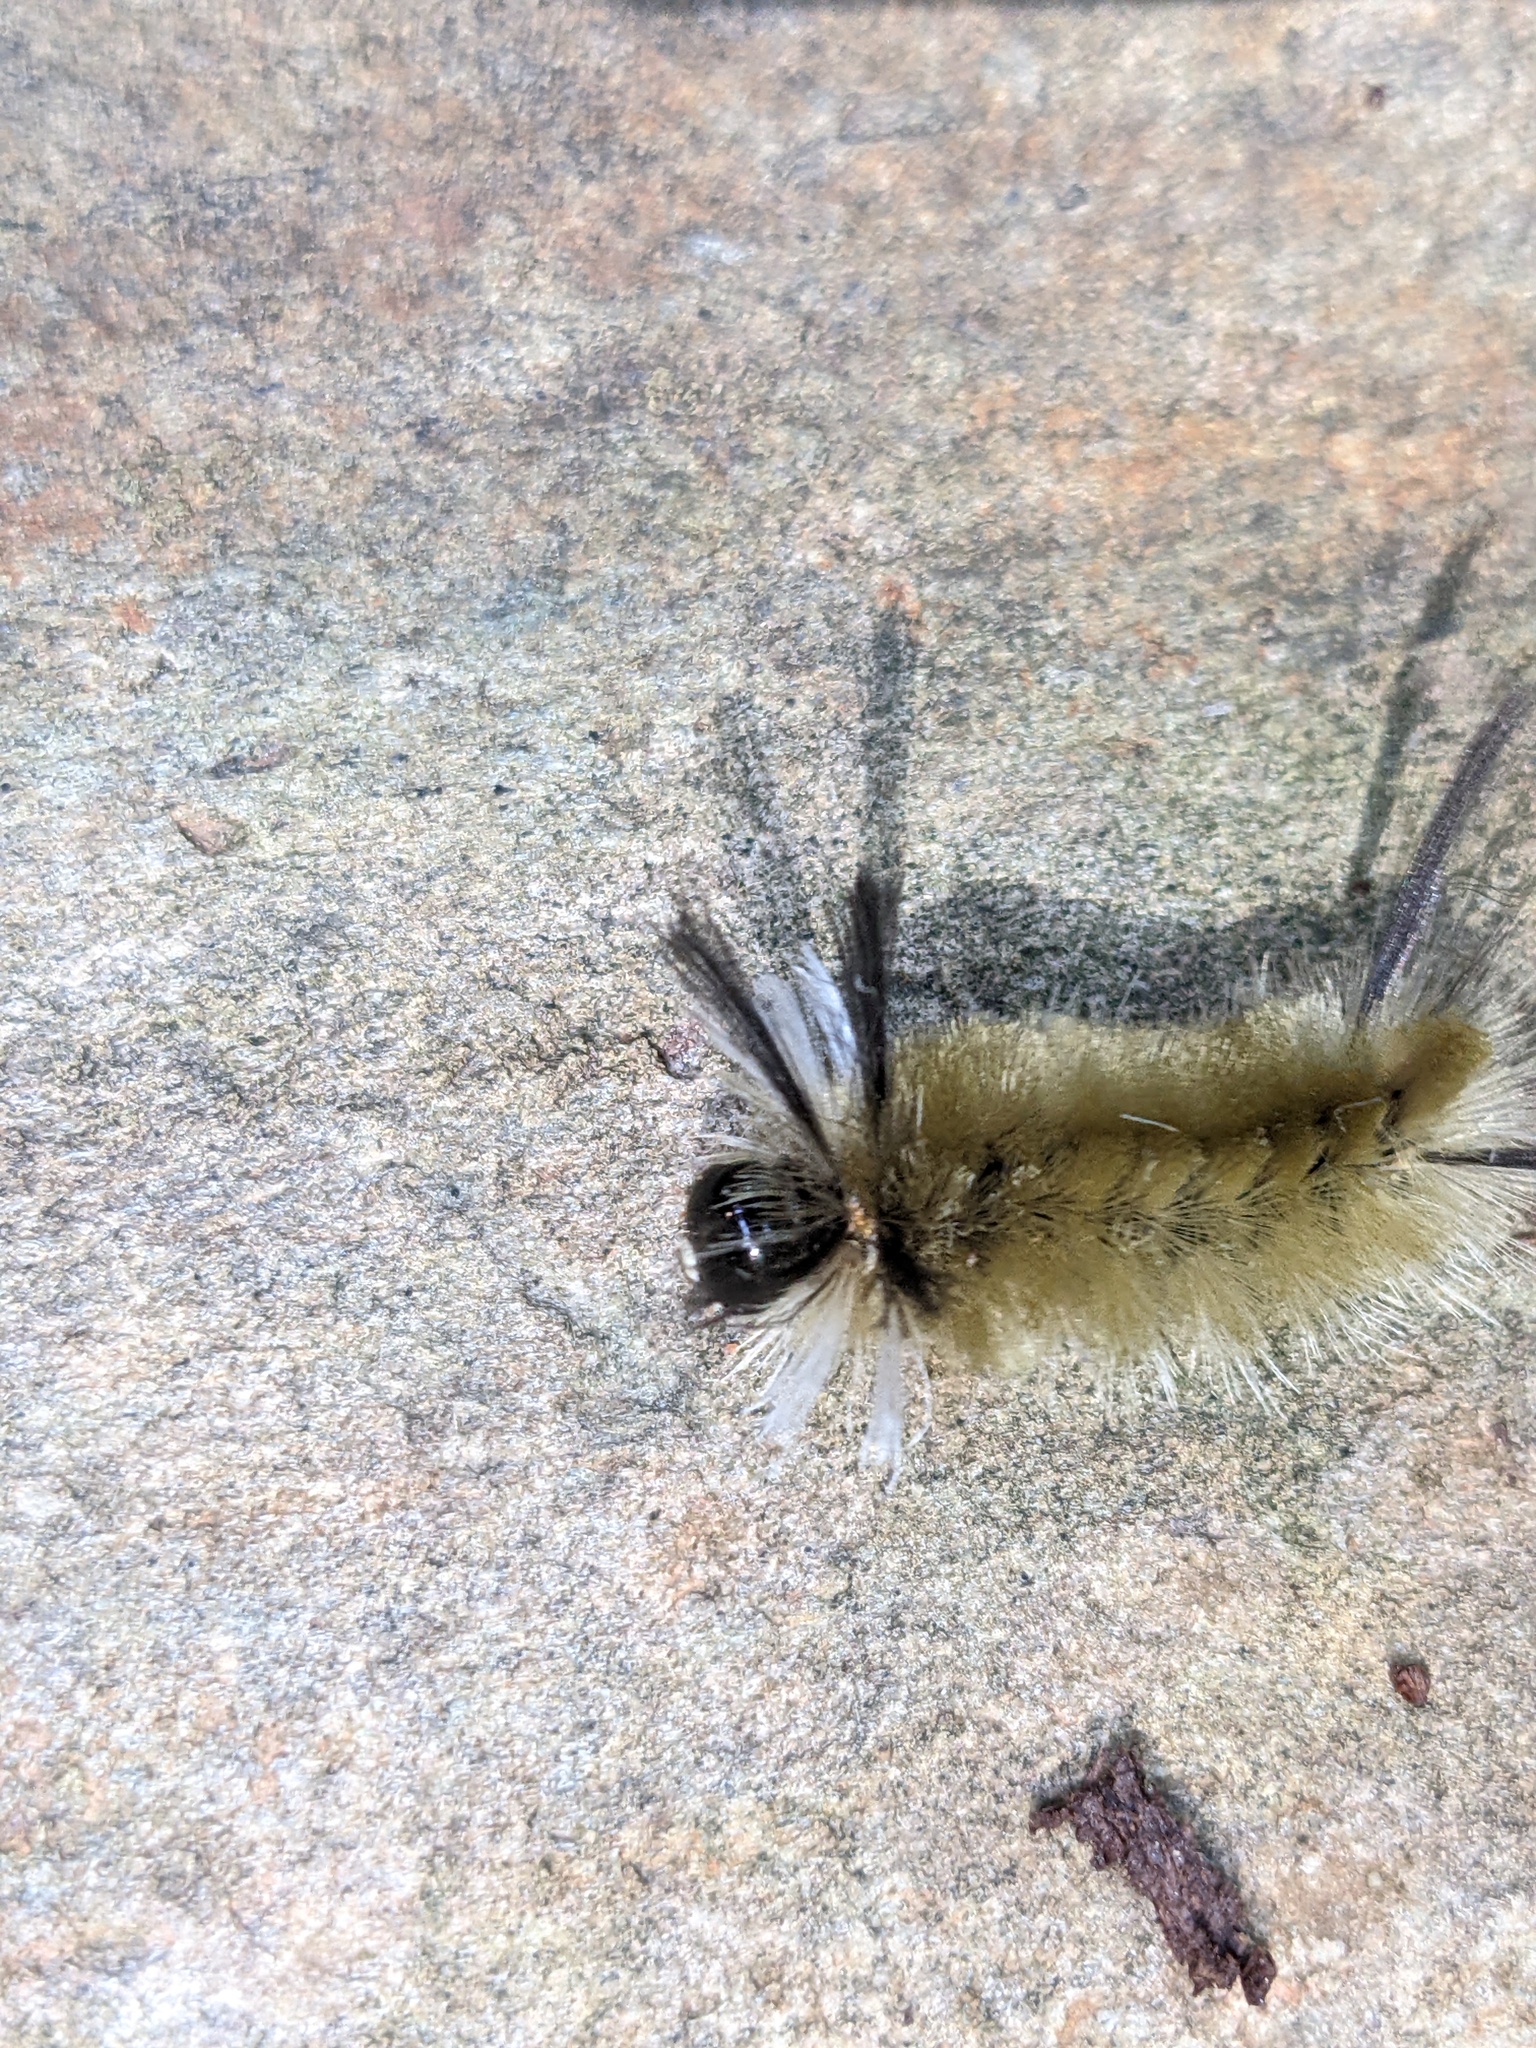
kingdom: Animalia
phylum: Arthropoda
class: Insecta
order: Lepidoptera
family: Erebidae
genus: Halysidota
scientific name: Halysidota tessellaris
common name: Banded tussock moth
